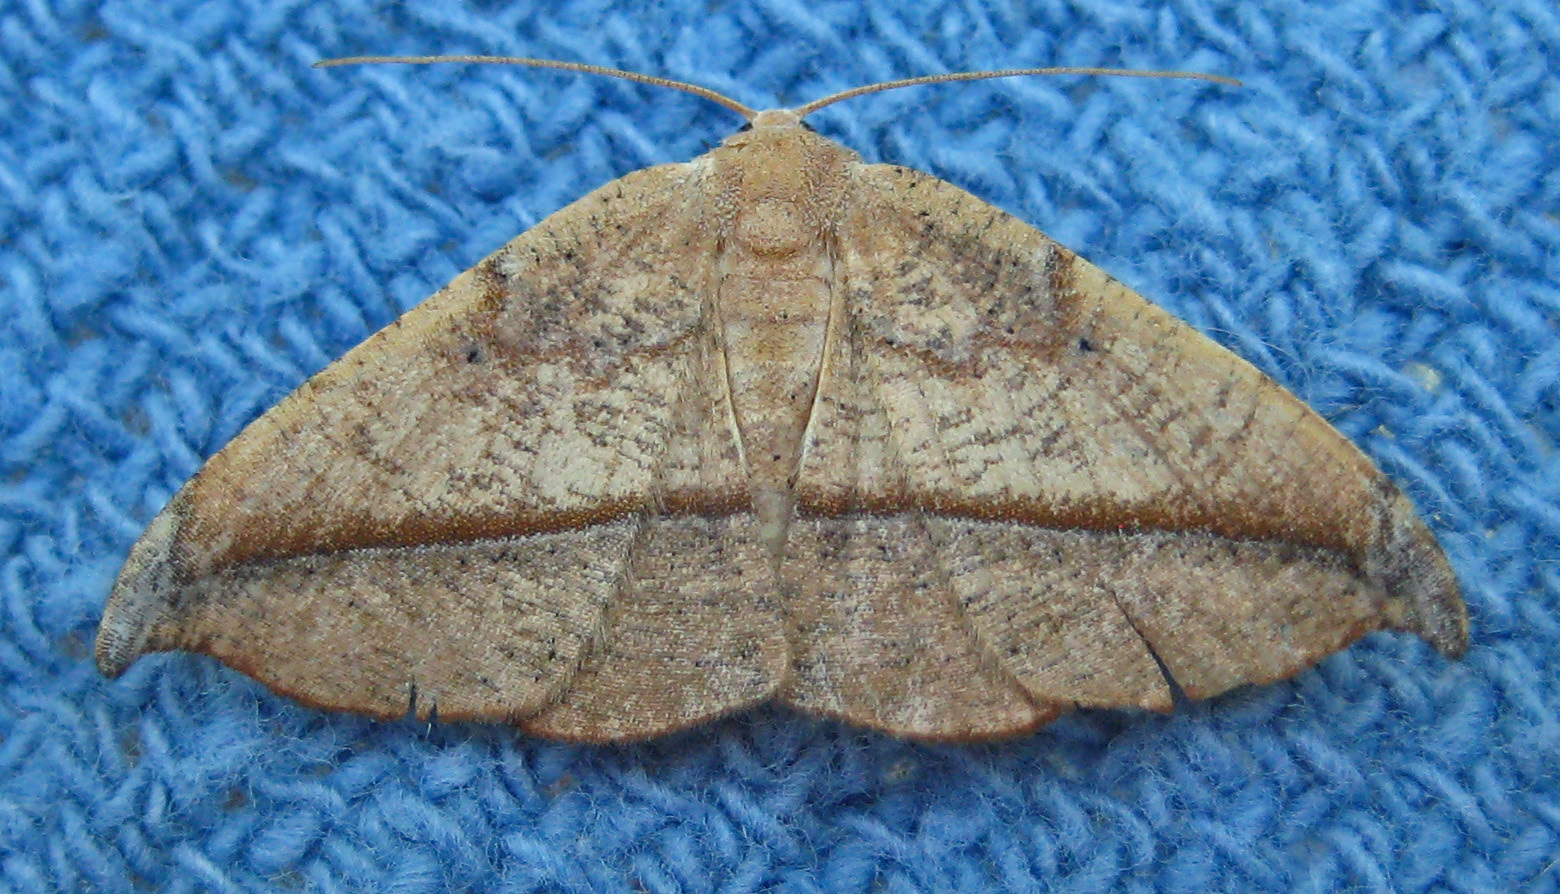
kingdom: Animalia
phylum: Arthropoda
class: Insecta
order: Lepidoptera
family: Geometridae
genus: Patalene
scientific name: Patalene olyzonaria
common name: Juniper geometer moth
